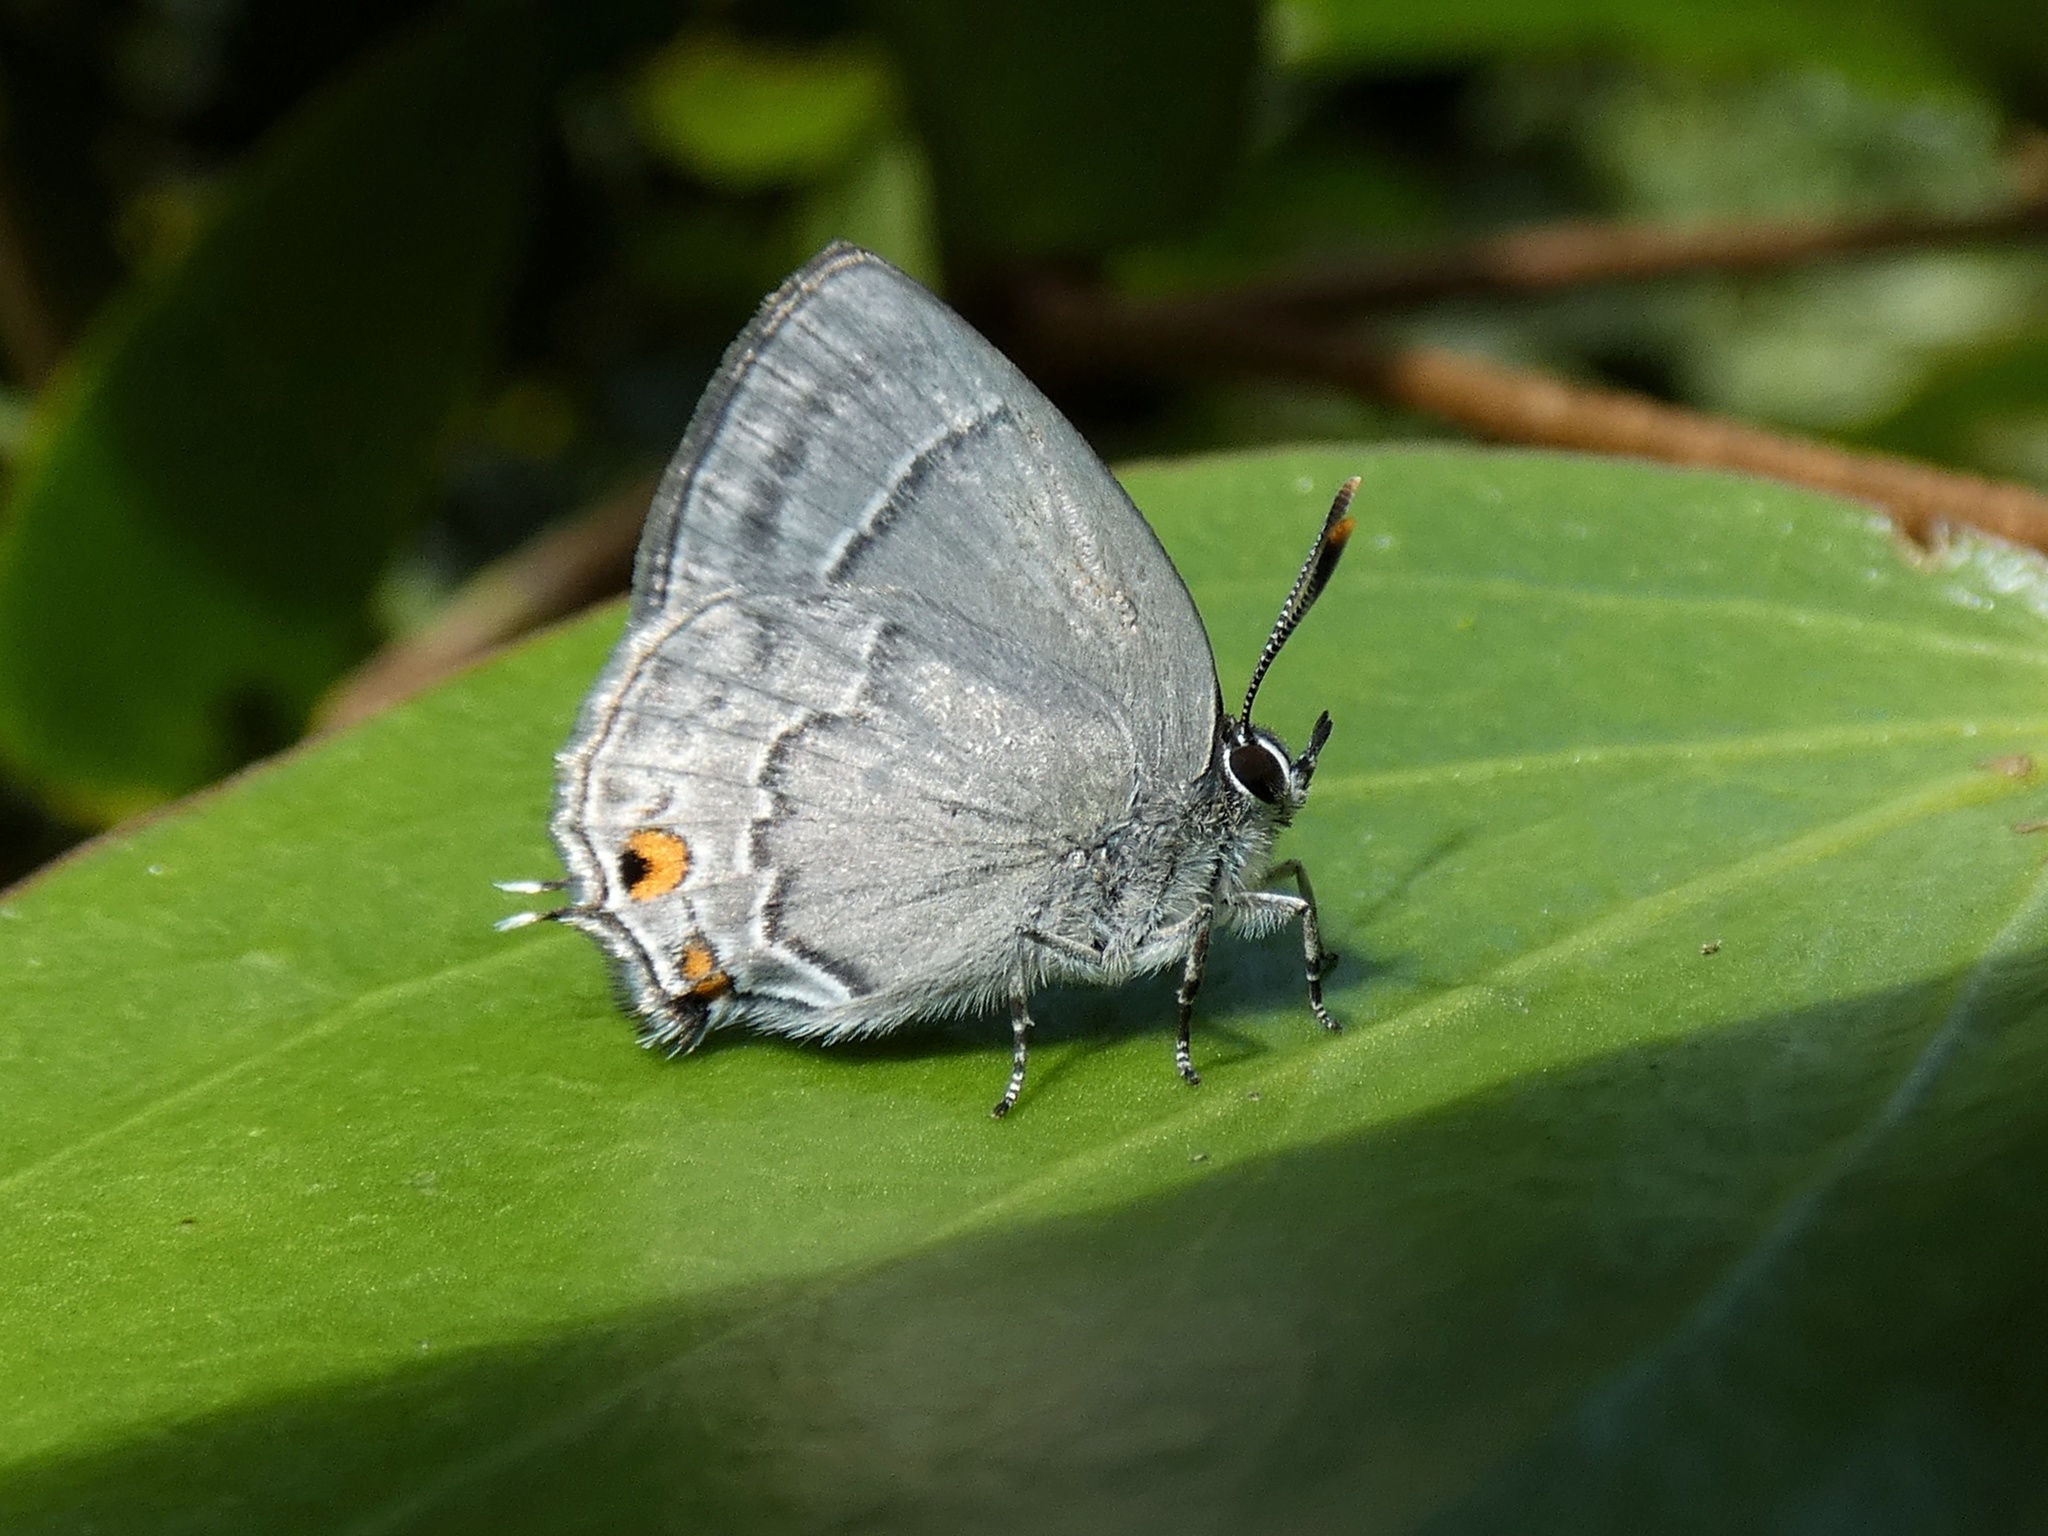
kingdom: Animalia
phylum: Arthropoda
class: Insecta
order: Lepidoptera
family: Lycaenidae
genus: Thereus
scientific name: Thereus lomalarga
